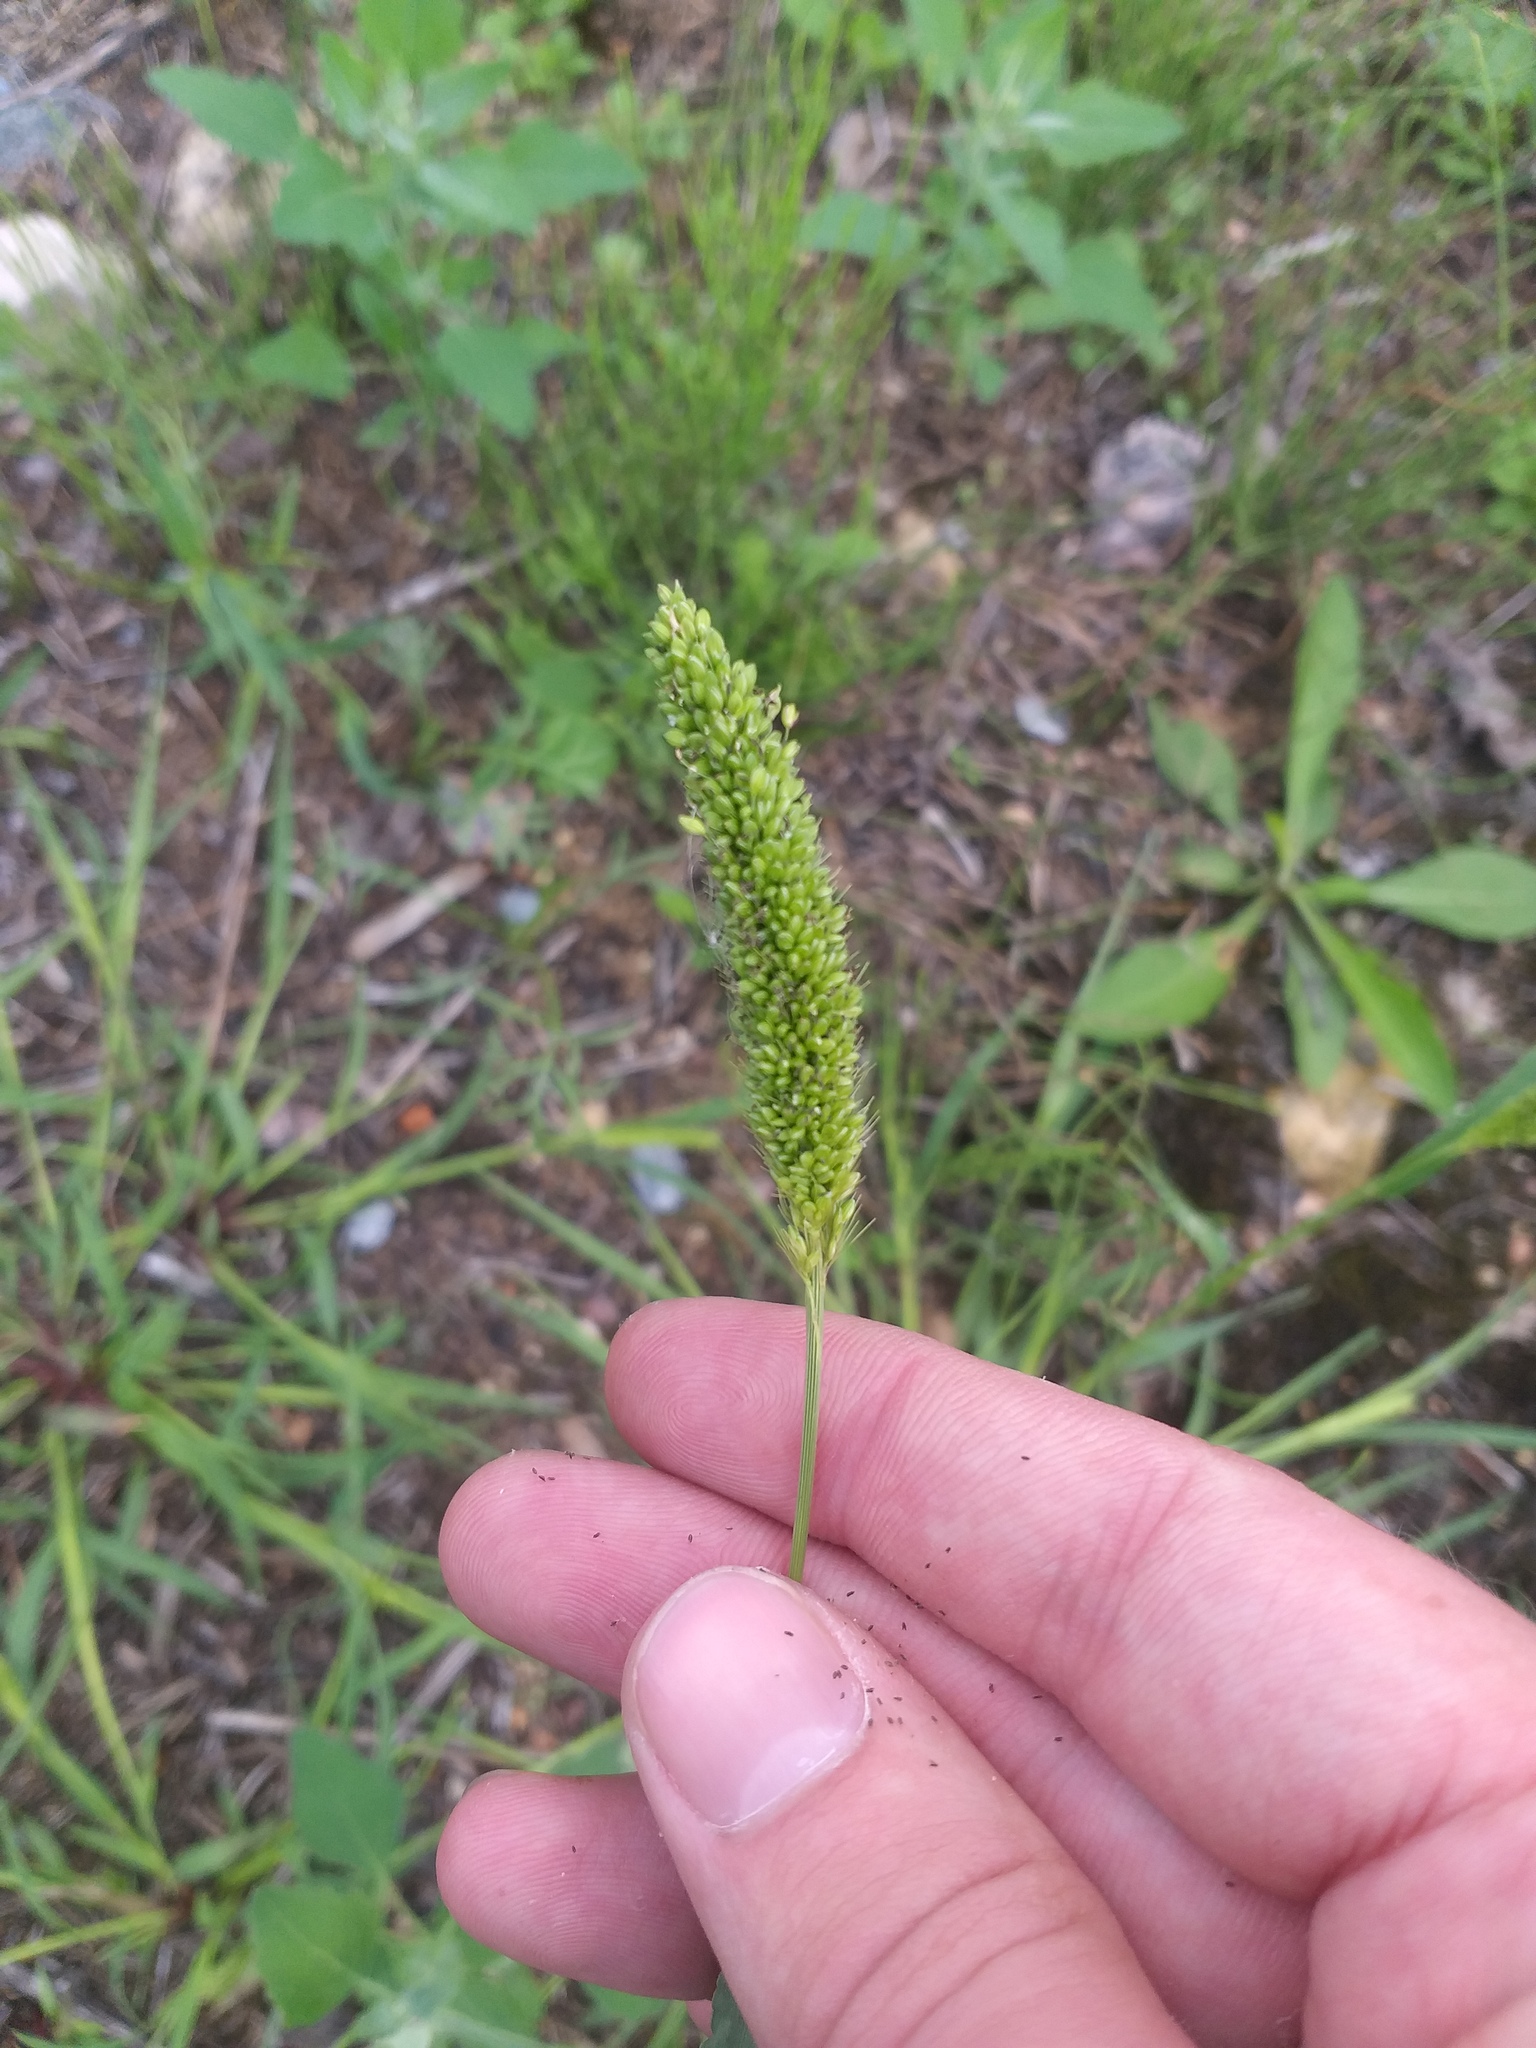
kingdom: Plantae
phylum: Tracheophyta
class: Liliopsida
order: Poales
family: Poaceae
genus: Setaria
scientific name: Setaria viridis
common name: Green bristlegrass
